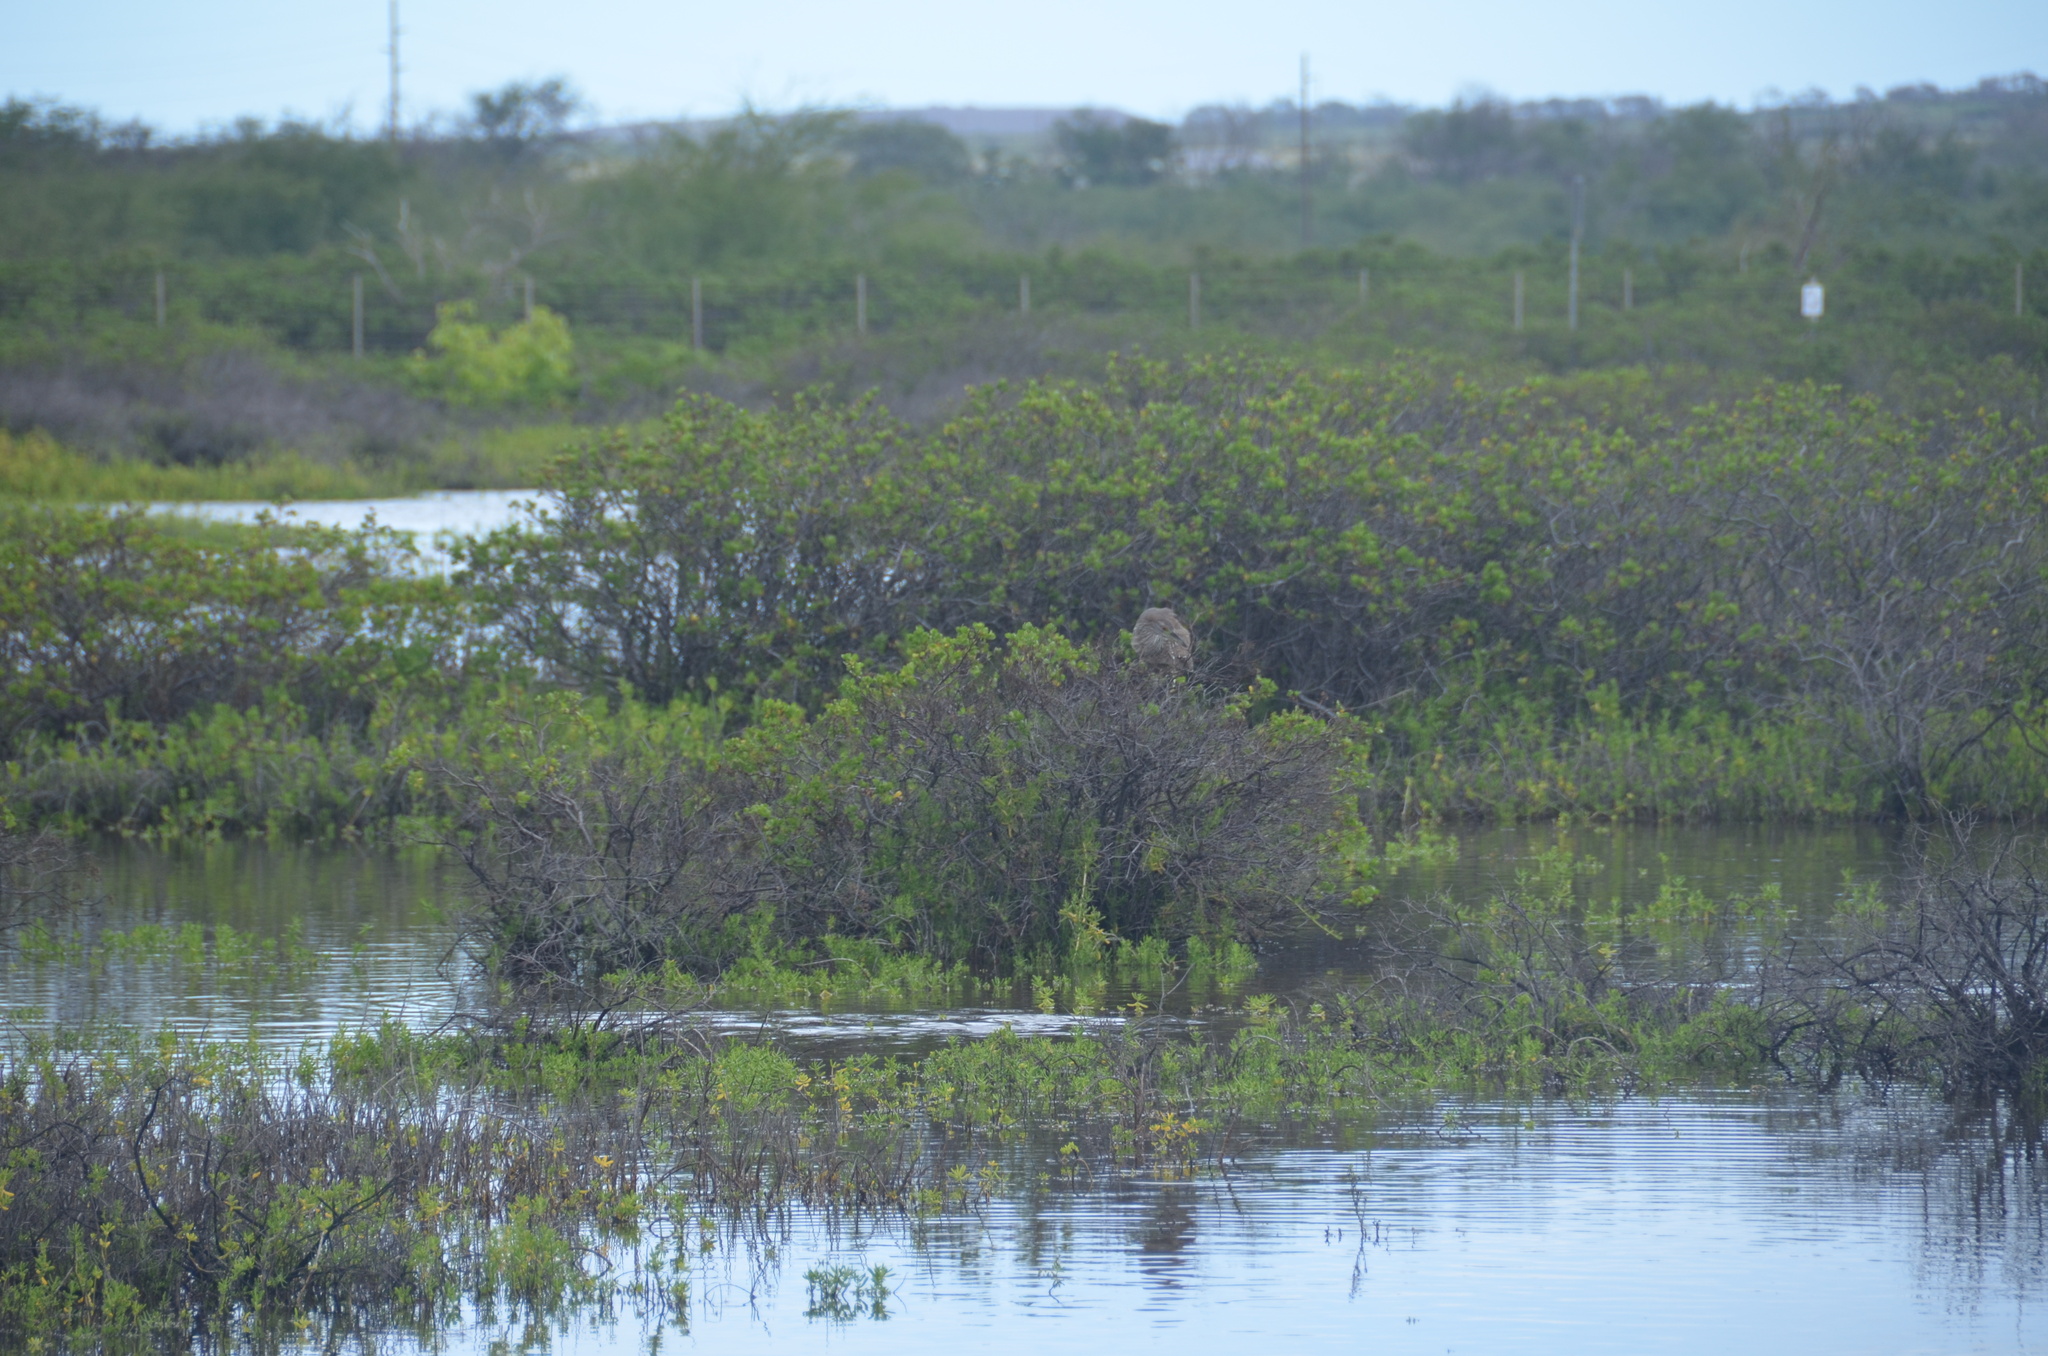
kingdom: Animalia
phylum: Chordata
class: Aves
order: Pelecaniformes
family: Ardeidae
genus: Nycticorax
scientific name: Nycticorax nycticorax
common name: Black-crowned night heron
